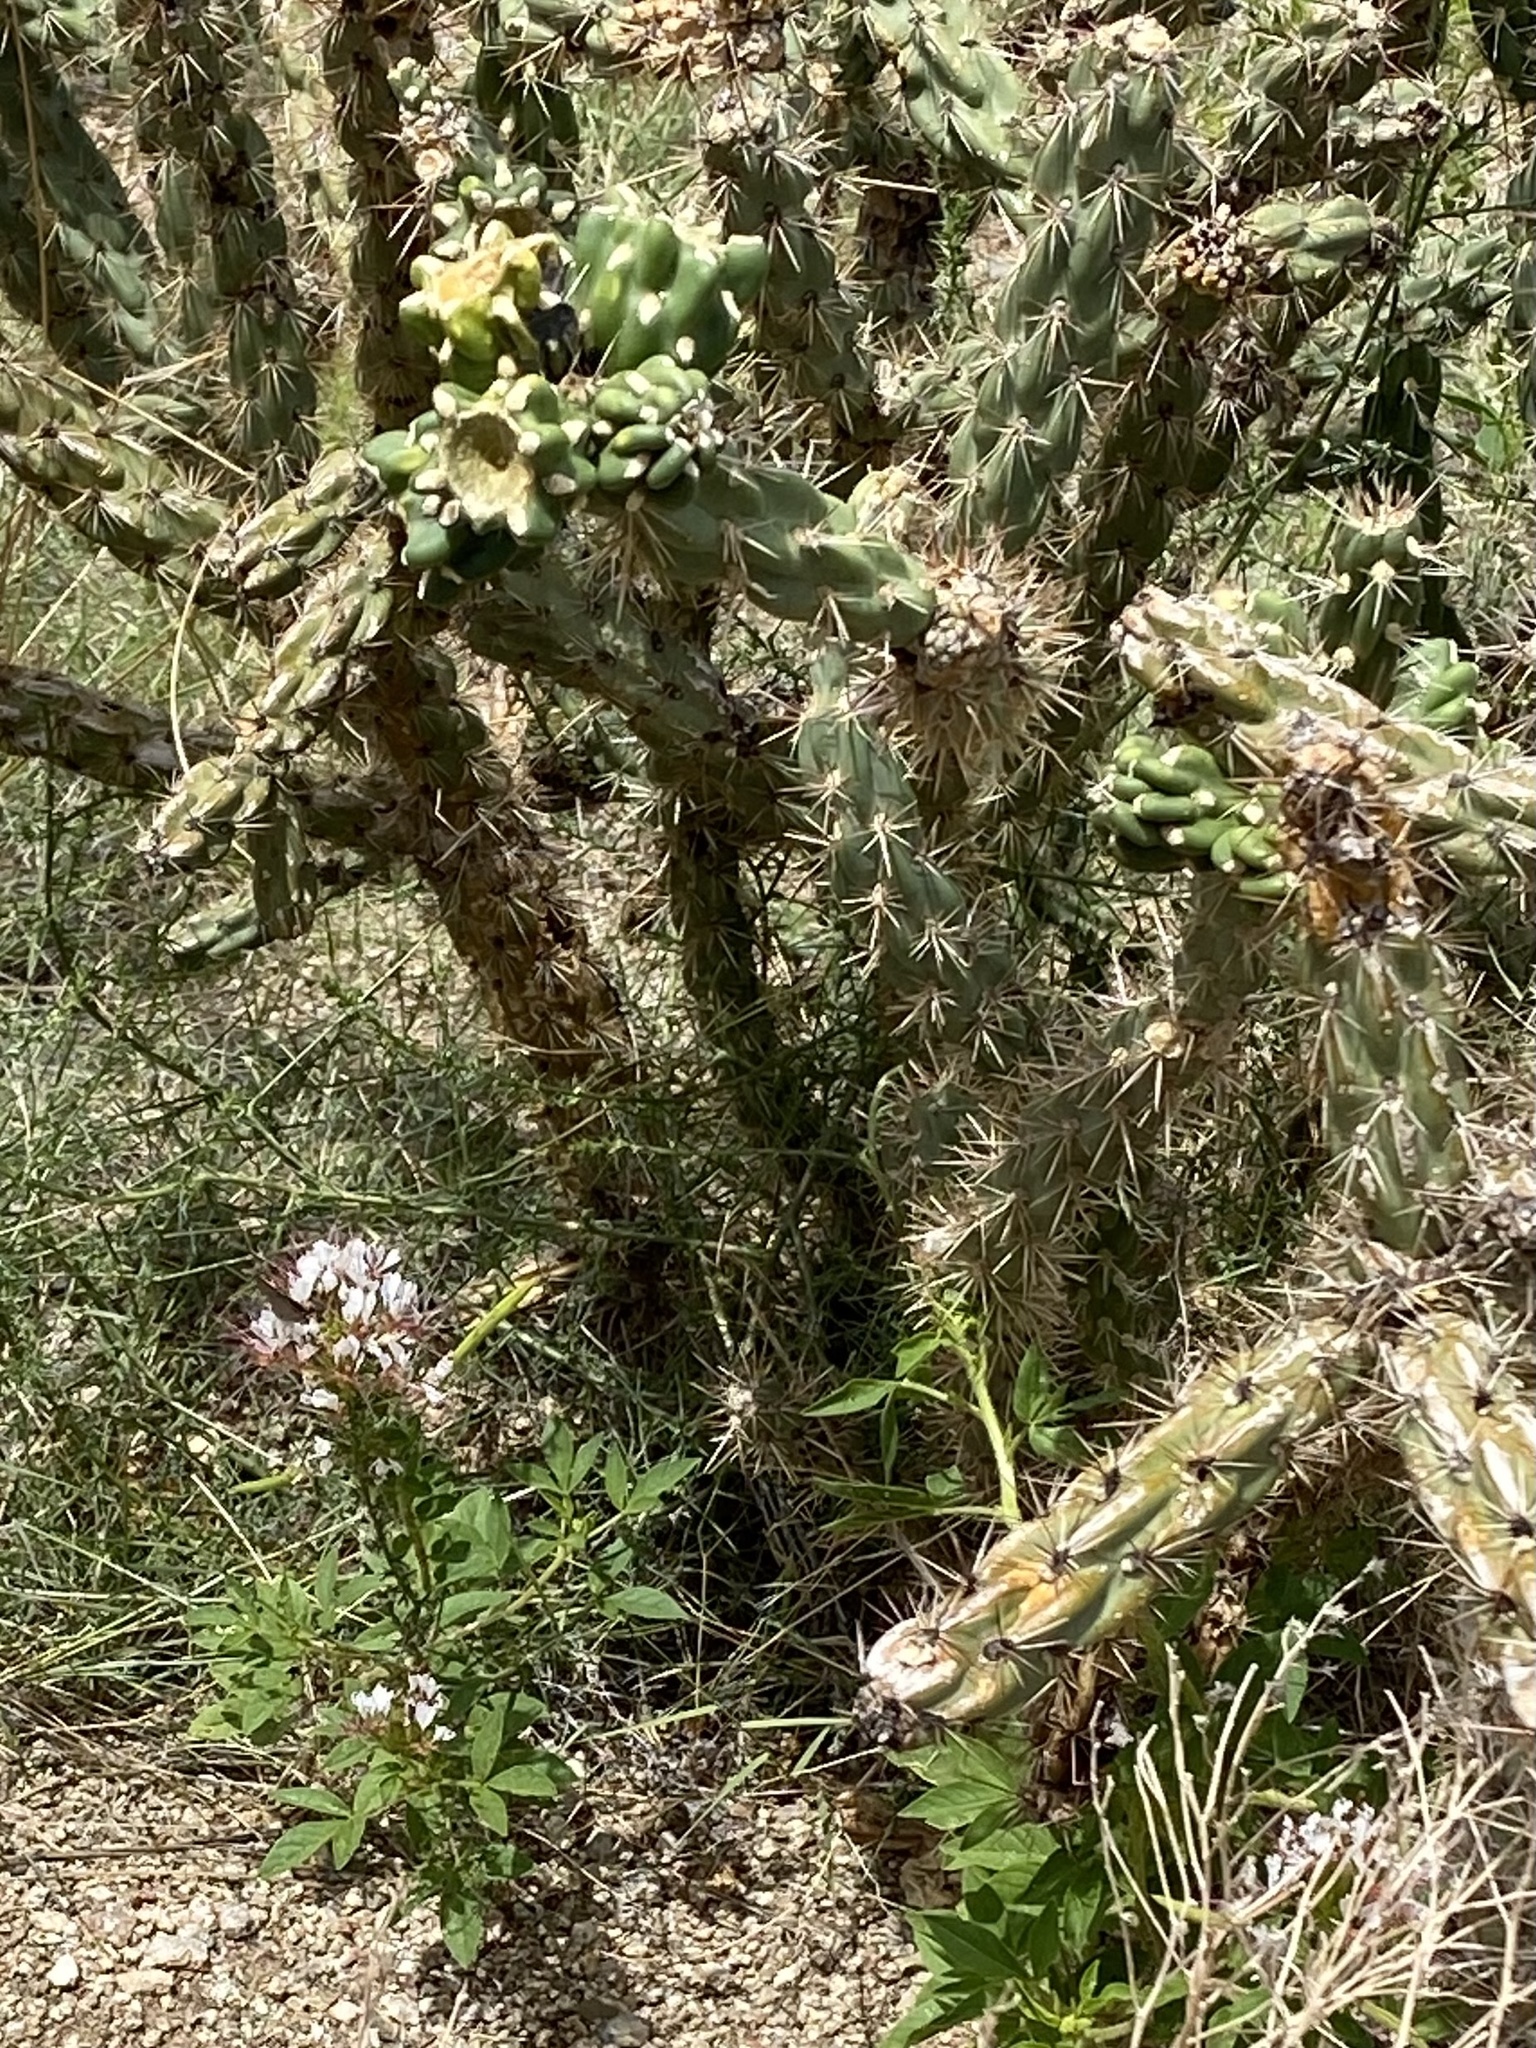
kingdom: Plantae
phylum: Tracheophyta
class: Magnoliopsida
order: Caryophyllales
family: Cactaceae
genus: Cylindropuntia
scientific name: Cylindropuntia imbricata
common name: Candelabrum cactus
